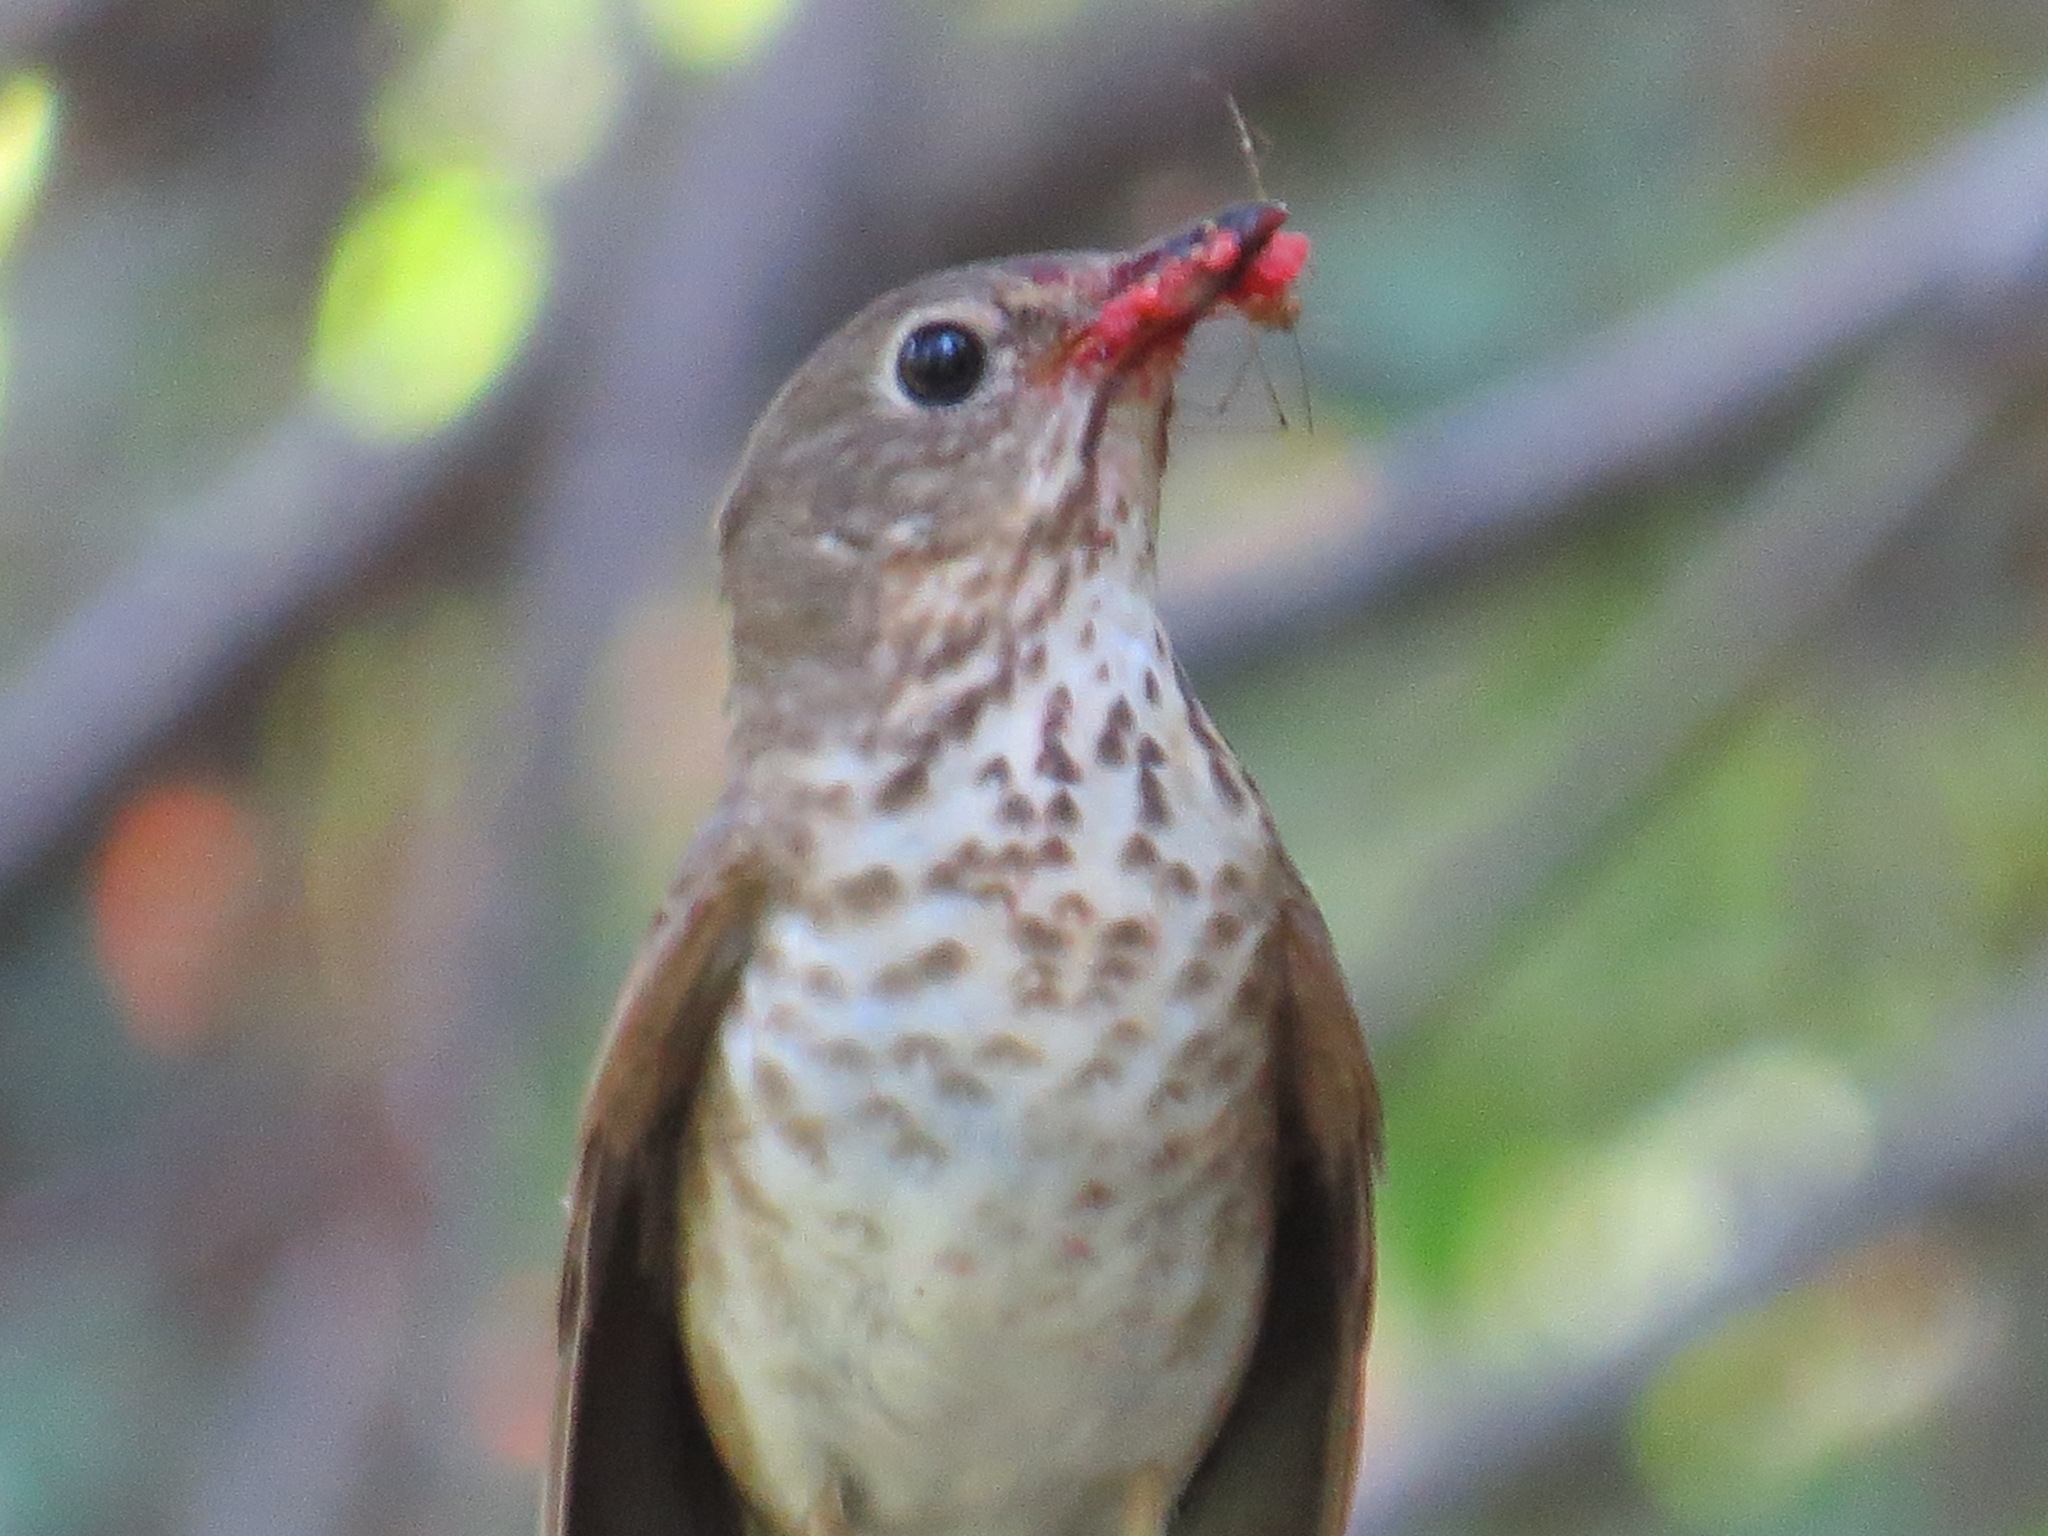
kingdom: Animalia
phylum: Chordata
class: Aves
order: Passeriformes
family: Turdidae
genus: Catharus
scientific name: Catharus ustulatus
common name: Swainson's thrush
